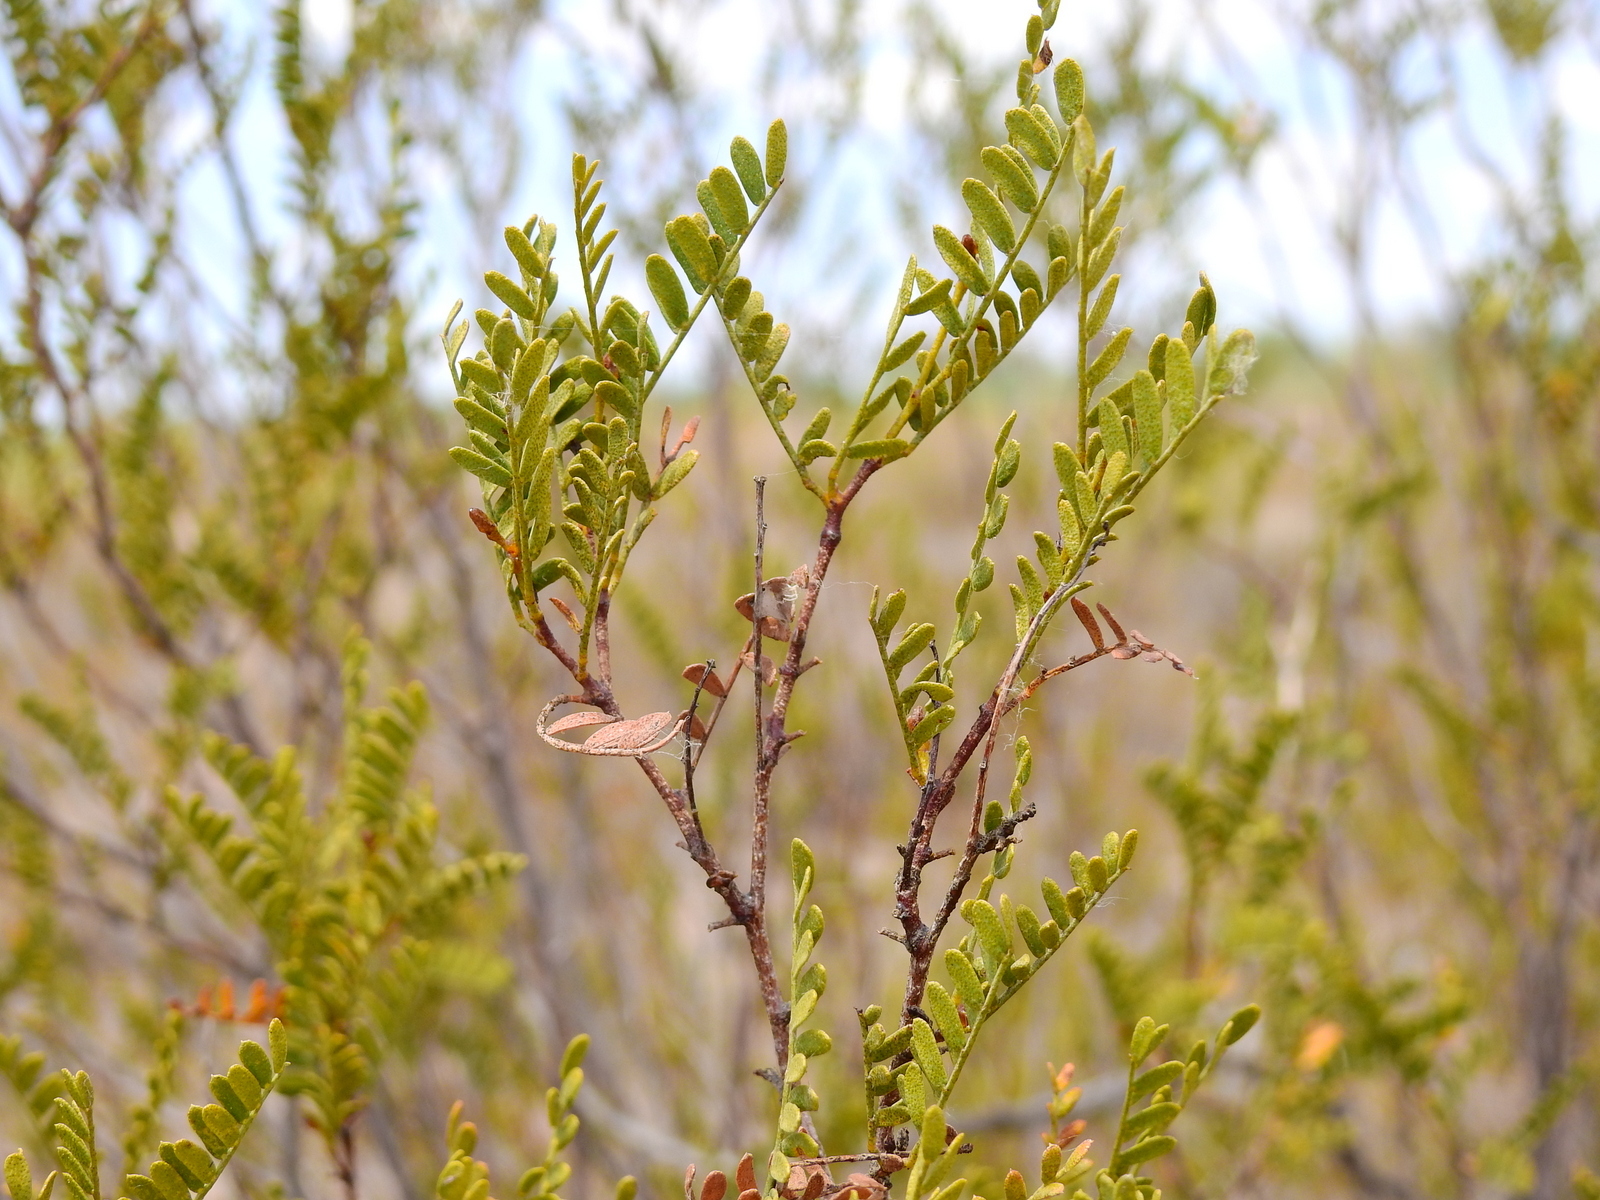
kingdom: Plantae
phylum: Tracheophyta
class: Magnoliopsida
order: Fabales
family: Fabaceae
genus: Zuccagnia
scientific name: Zuccagnia punctata
